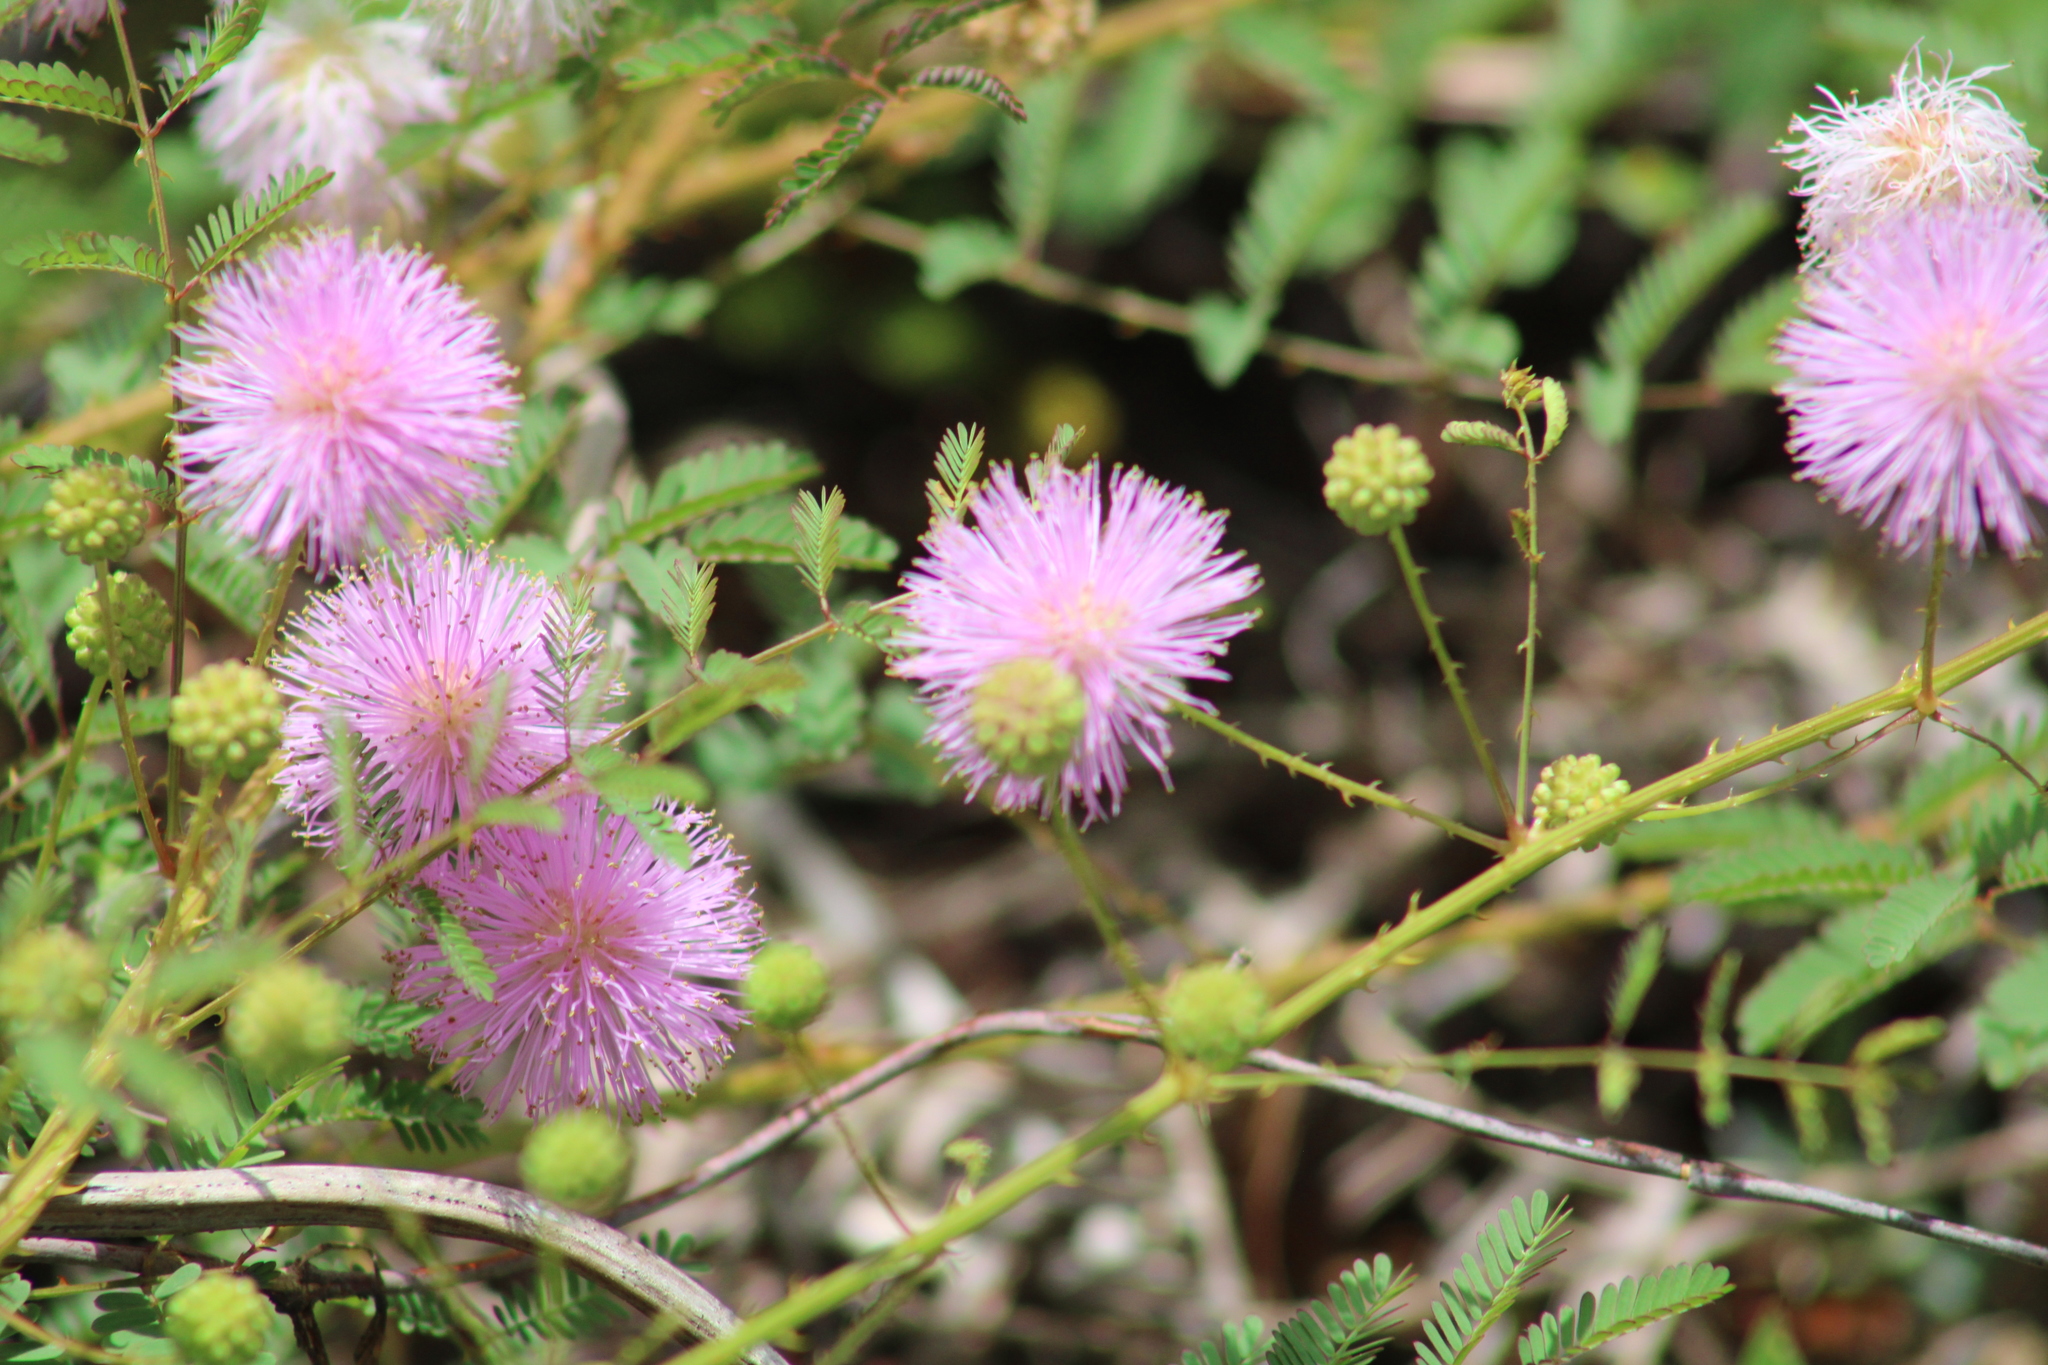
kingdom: Plantae
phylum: Tracheophyta
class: Magnoliopsida
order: Fabales
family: Fabaceae
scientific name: Fabaceae
